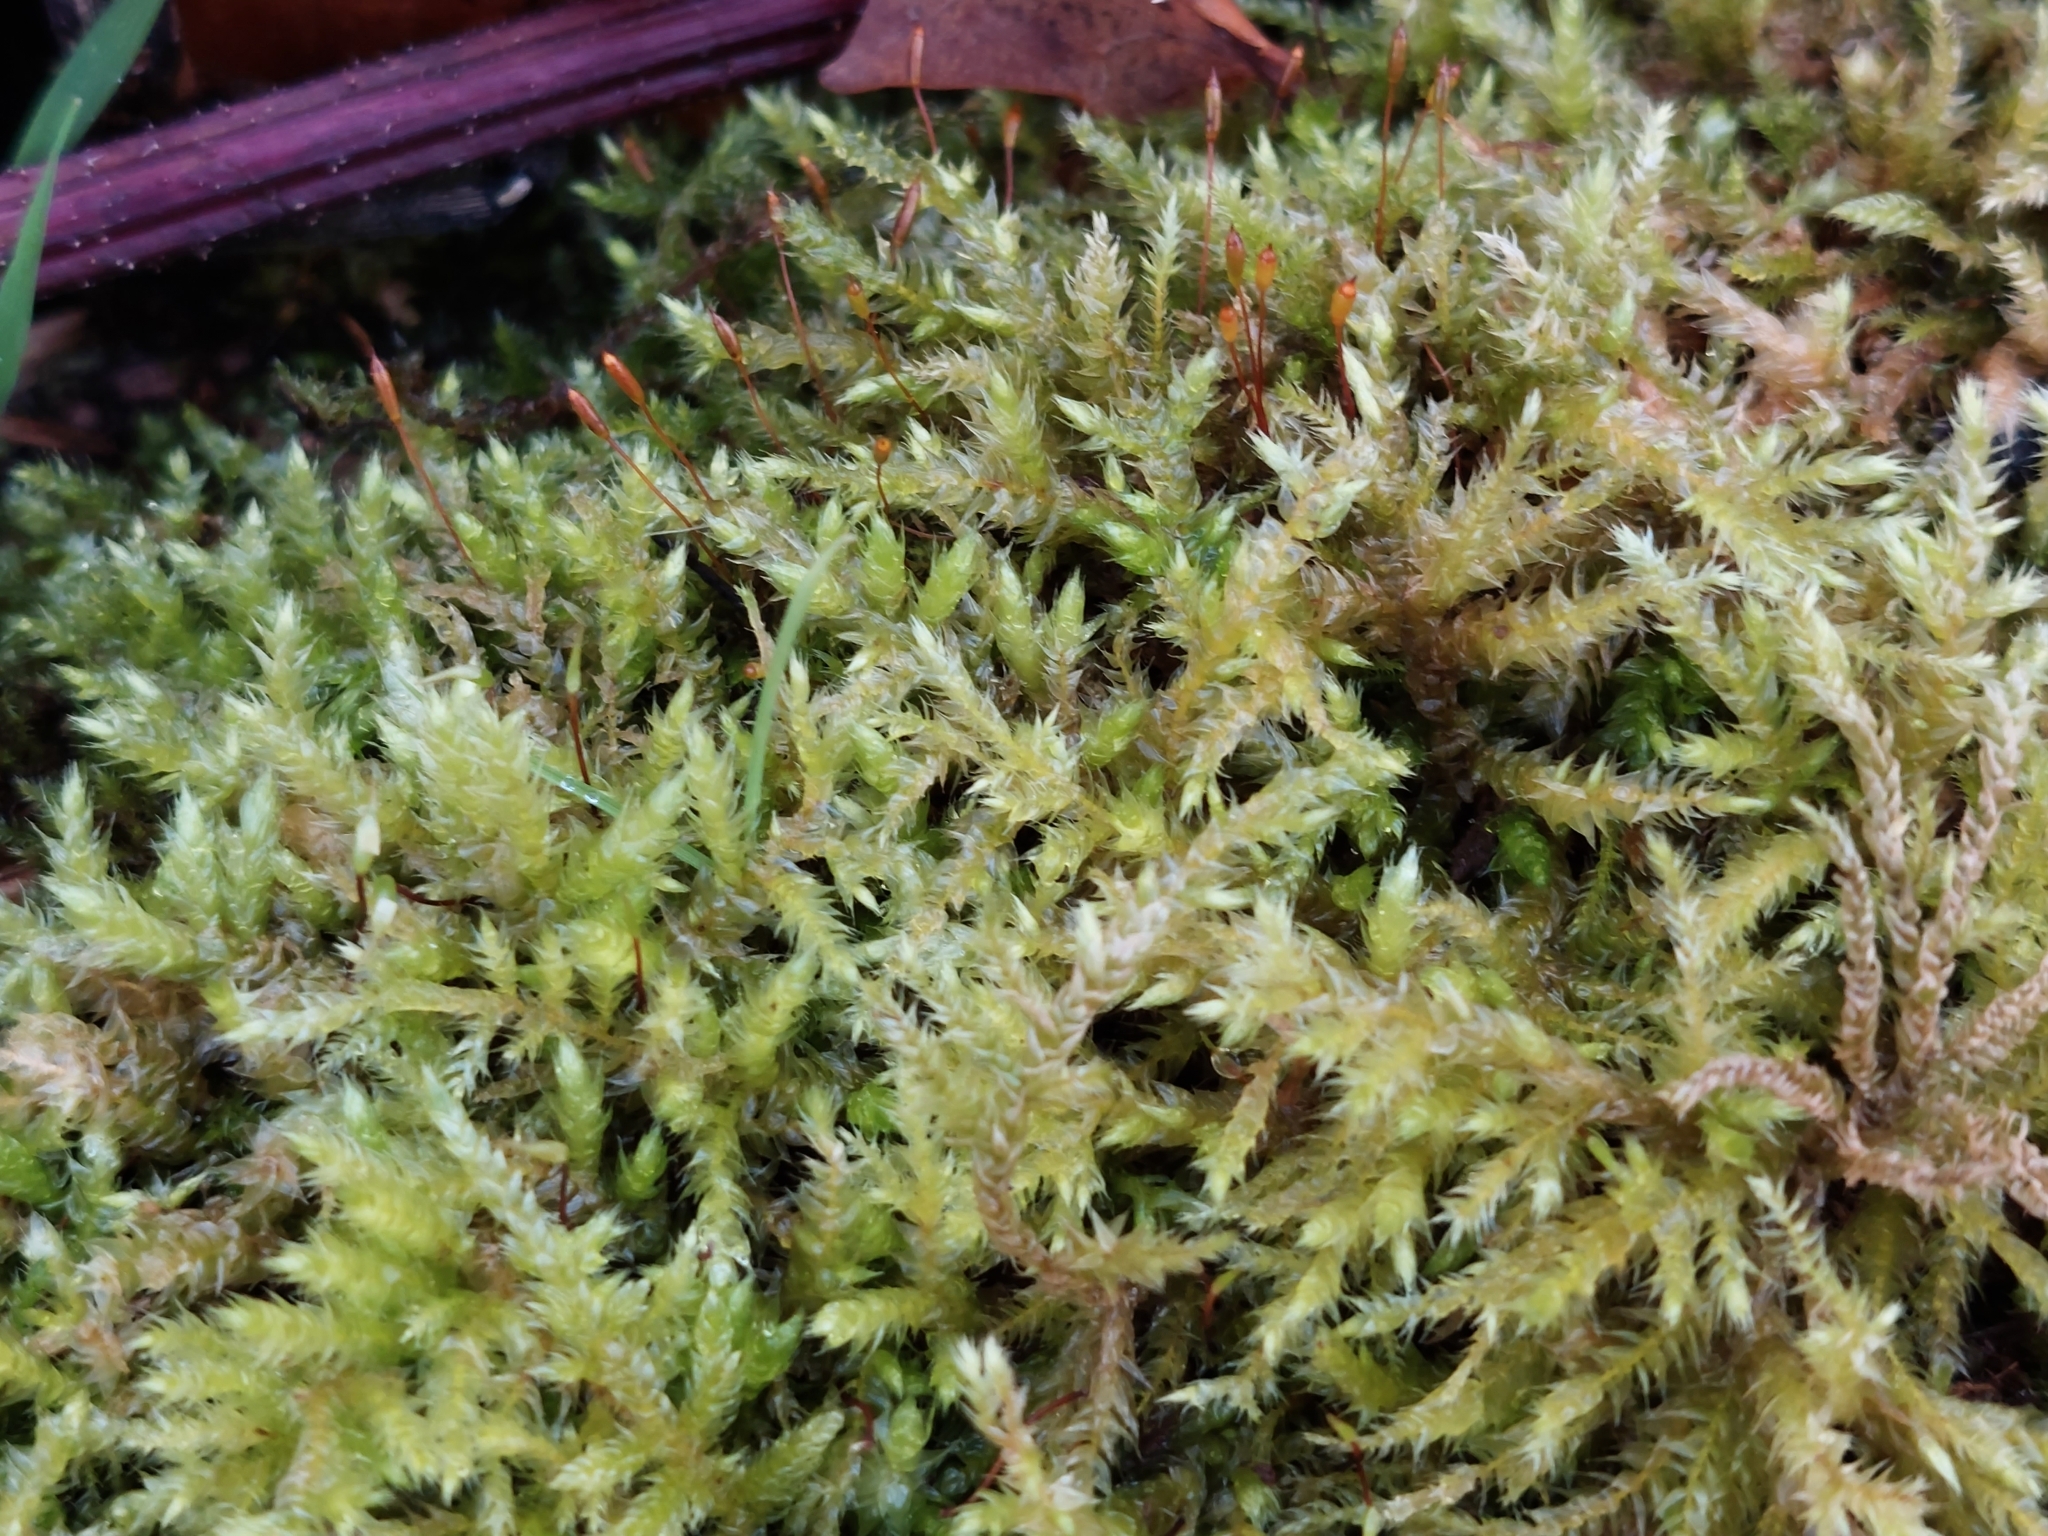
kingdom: Plantae
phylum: Bryophyta
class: Bryopsida
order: Hypnales
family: Brachytheciaceae
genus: Brachythecium
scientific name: Brachythecium rutabulum
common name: Rough-stalked feather-moss
